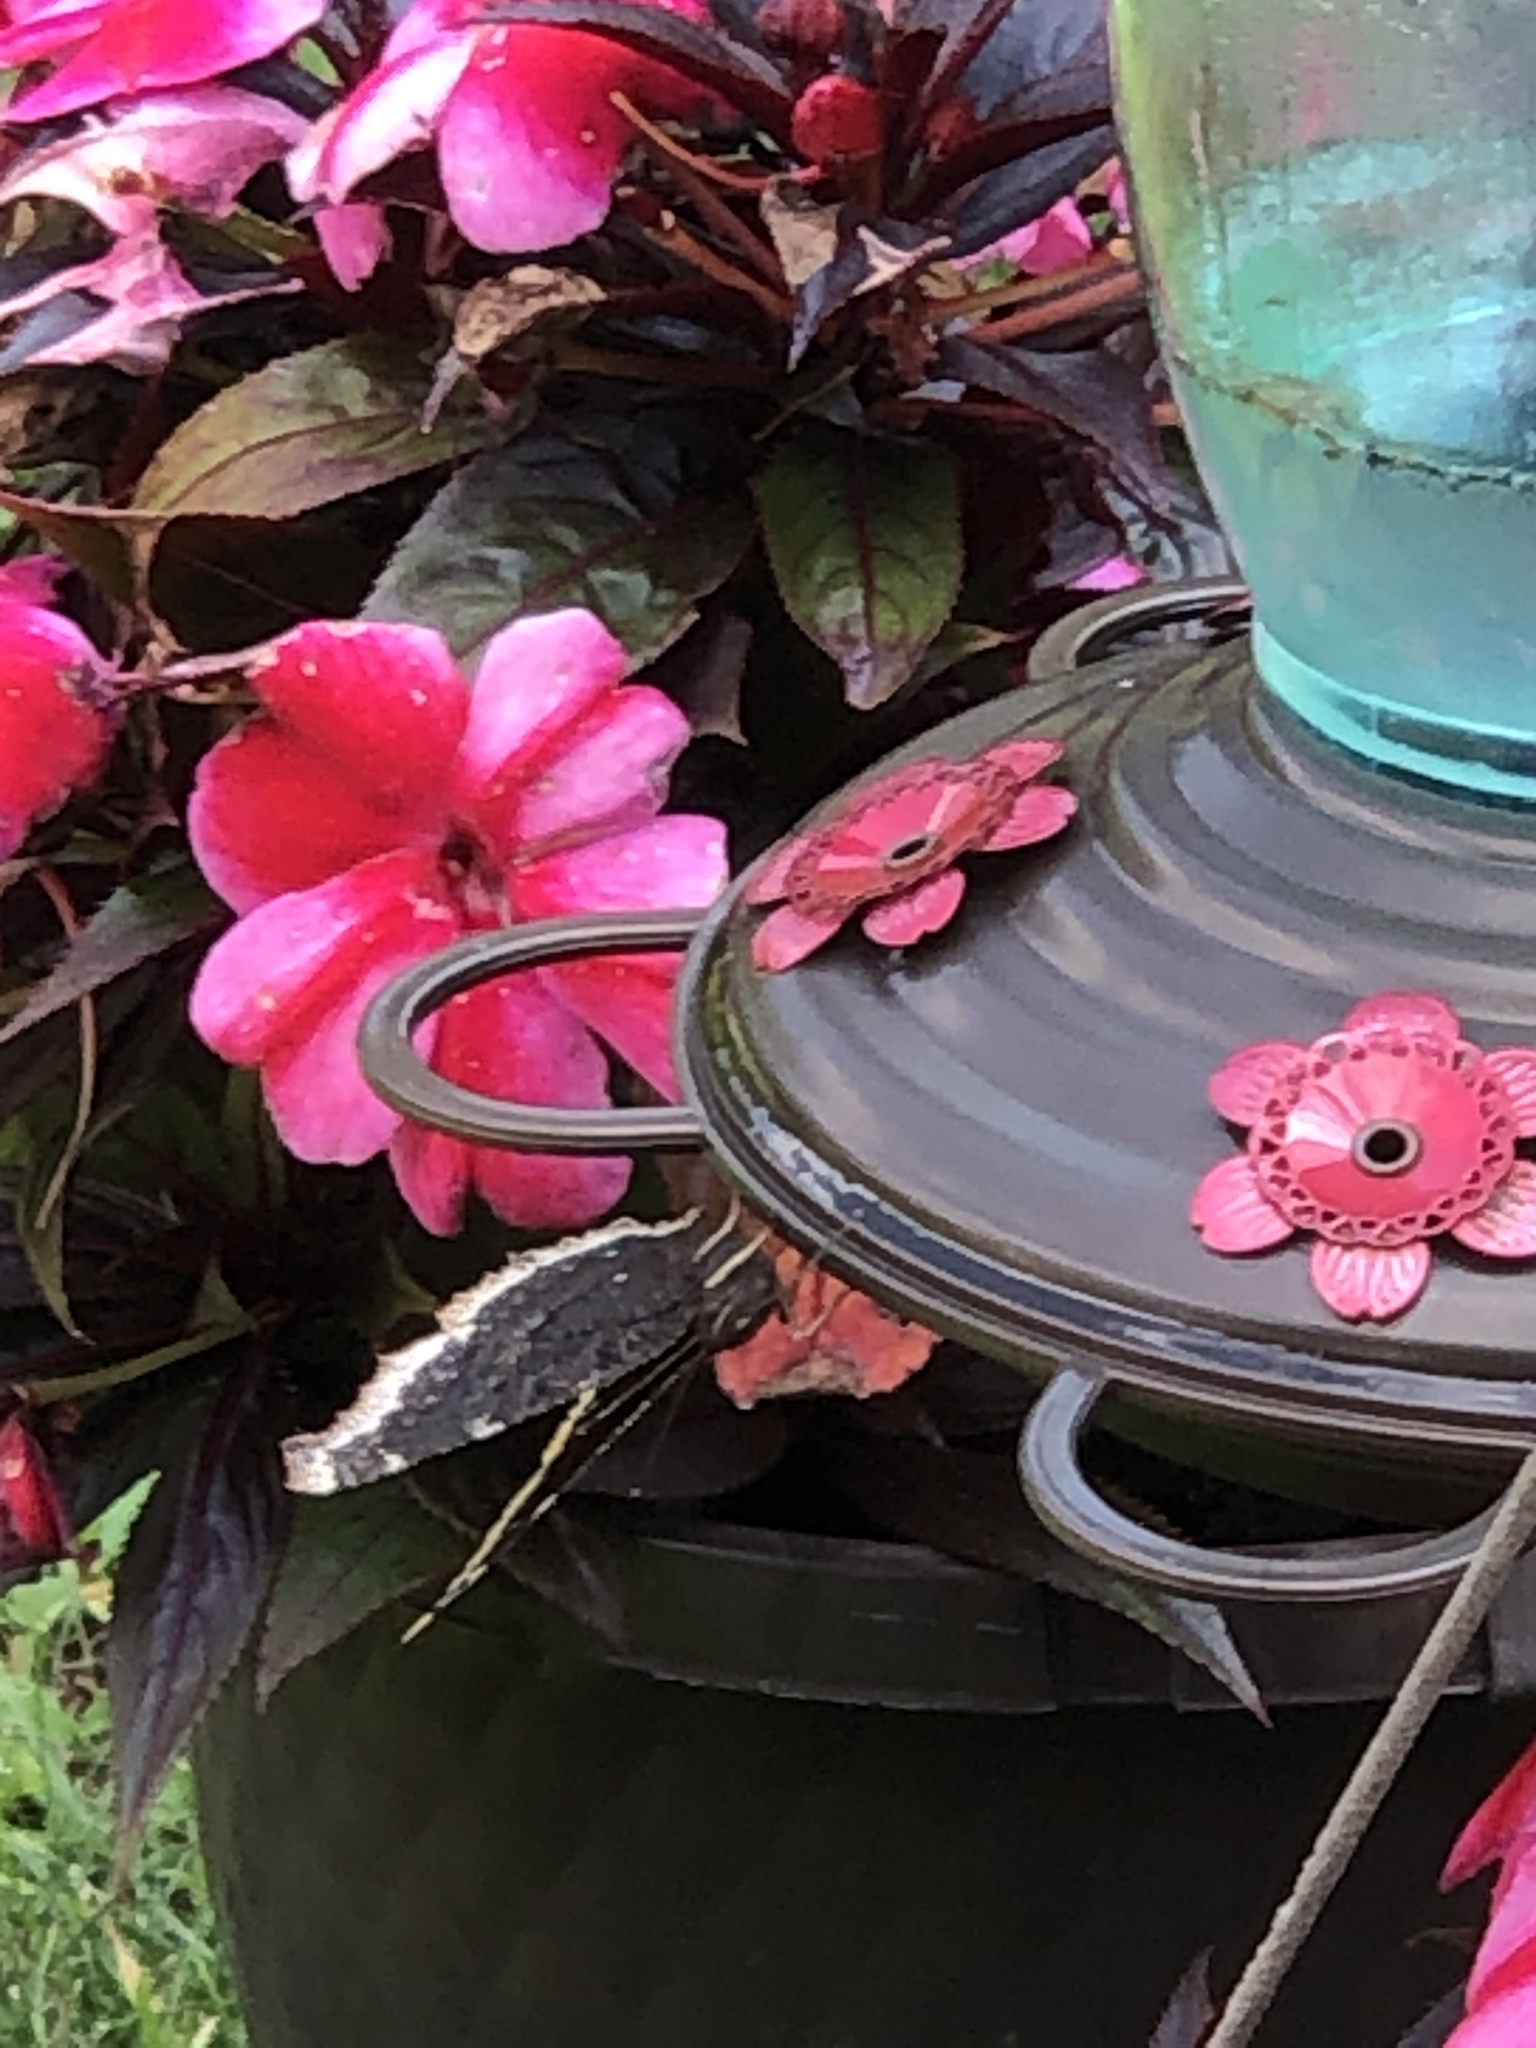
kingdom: Animalia
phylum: Arthropoda
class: Insecta
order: Lepidoptera
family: Nymphalidae
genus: Nymphalis
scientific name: Nymphalis antiopa
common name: Camberwell beauty
